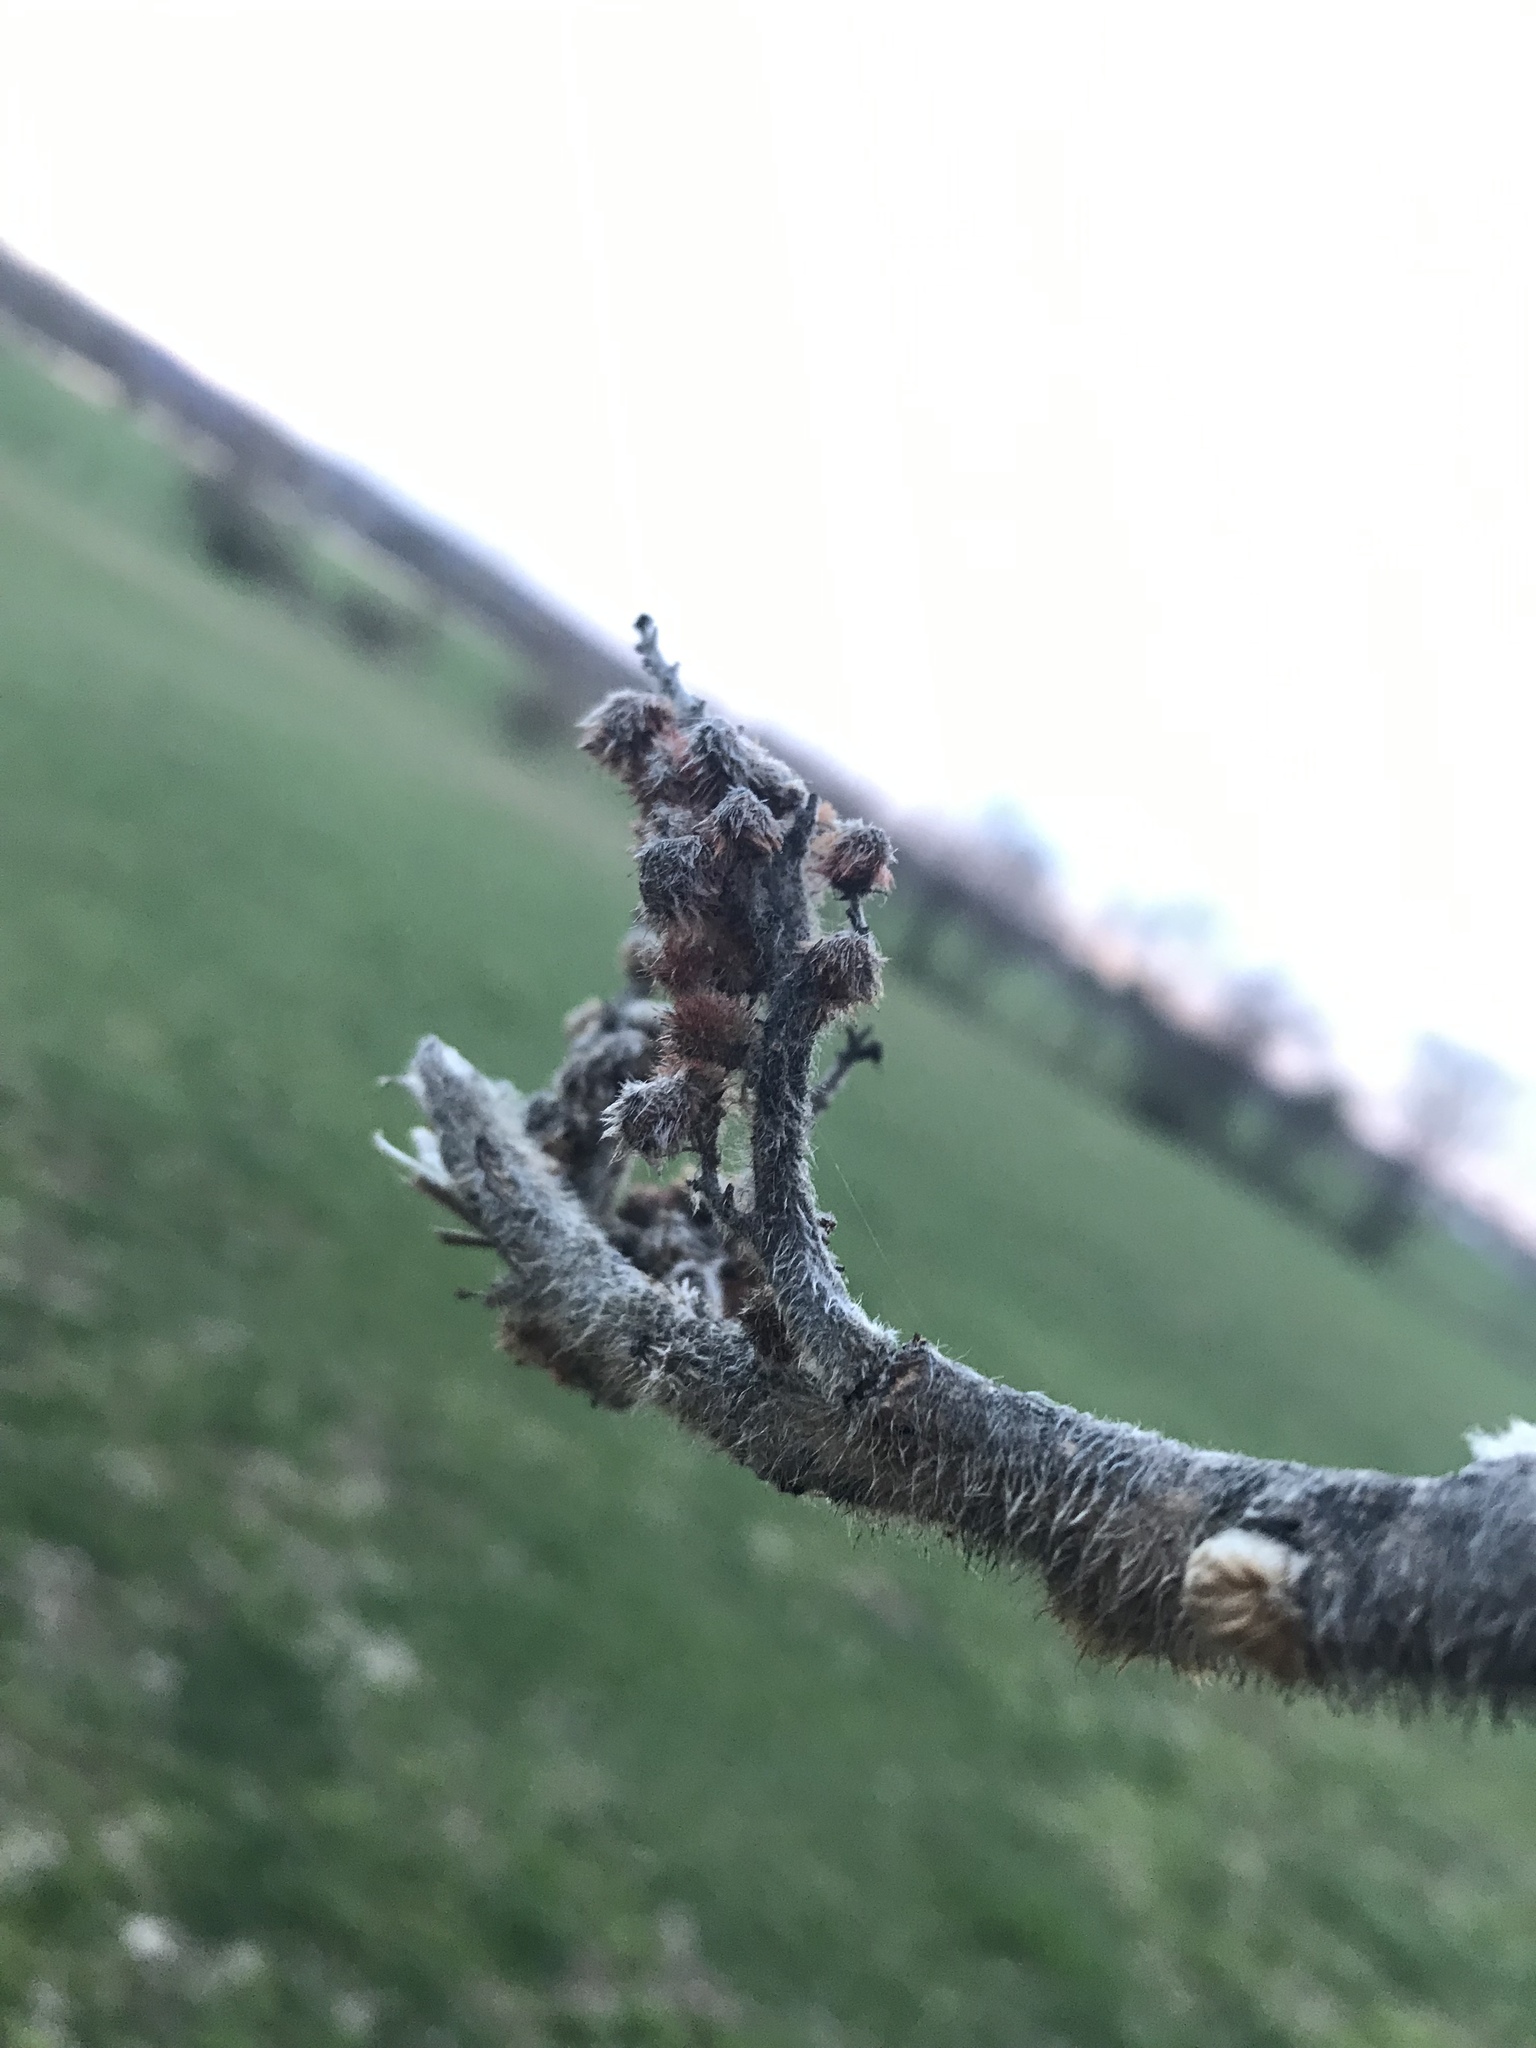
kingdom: Plantae
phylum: Tracheophyta
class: Magnoliopsida
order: Sapindales
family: Anacardiaceae
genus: Rhus
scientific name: Rhus typhina
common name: Staghorn sumac
